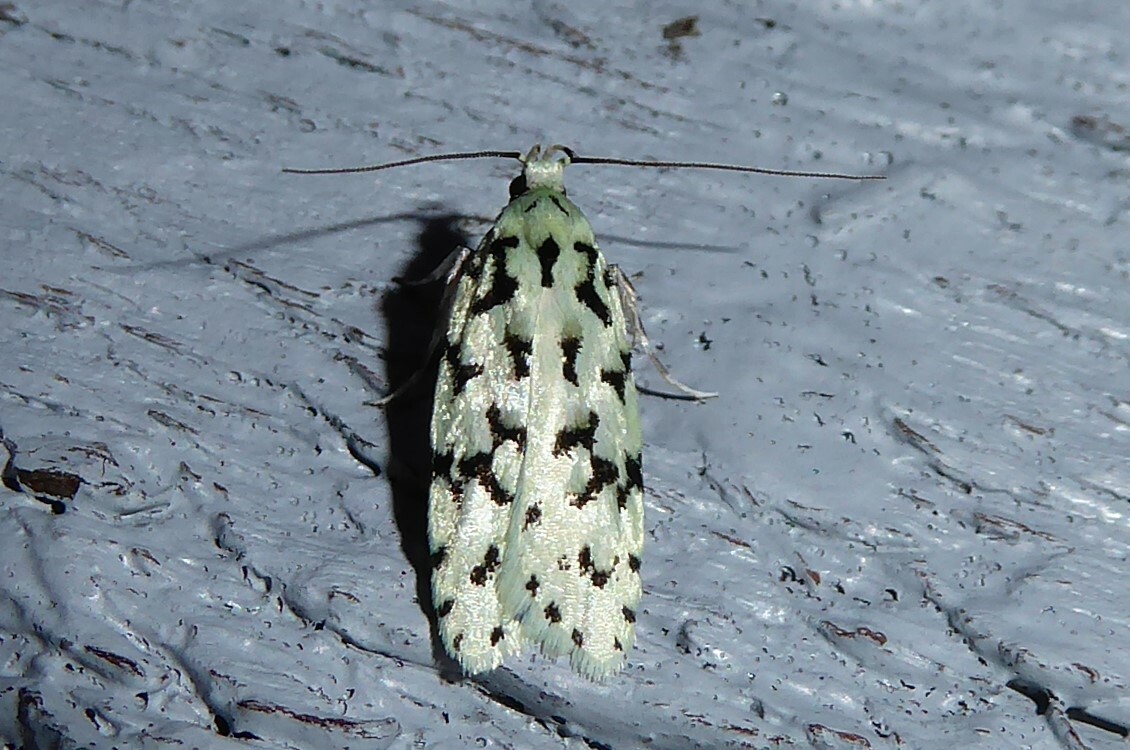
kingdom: Animalia
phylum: Arthropoda
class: Insecta
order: Lepidoptera
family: Oecophoridae
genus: Izatha
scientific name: Izatha huttoni
